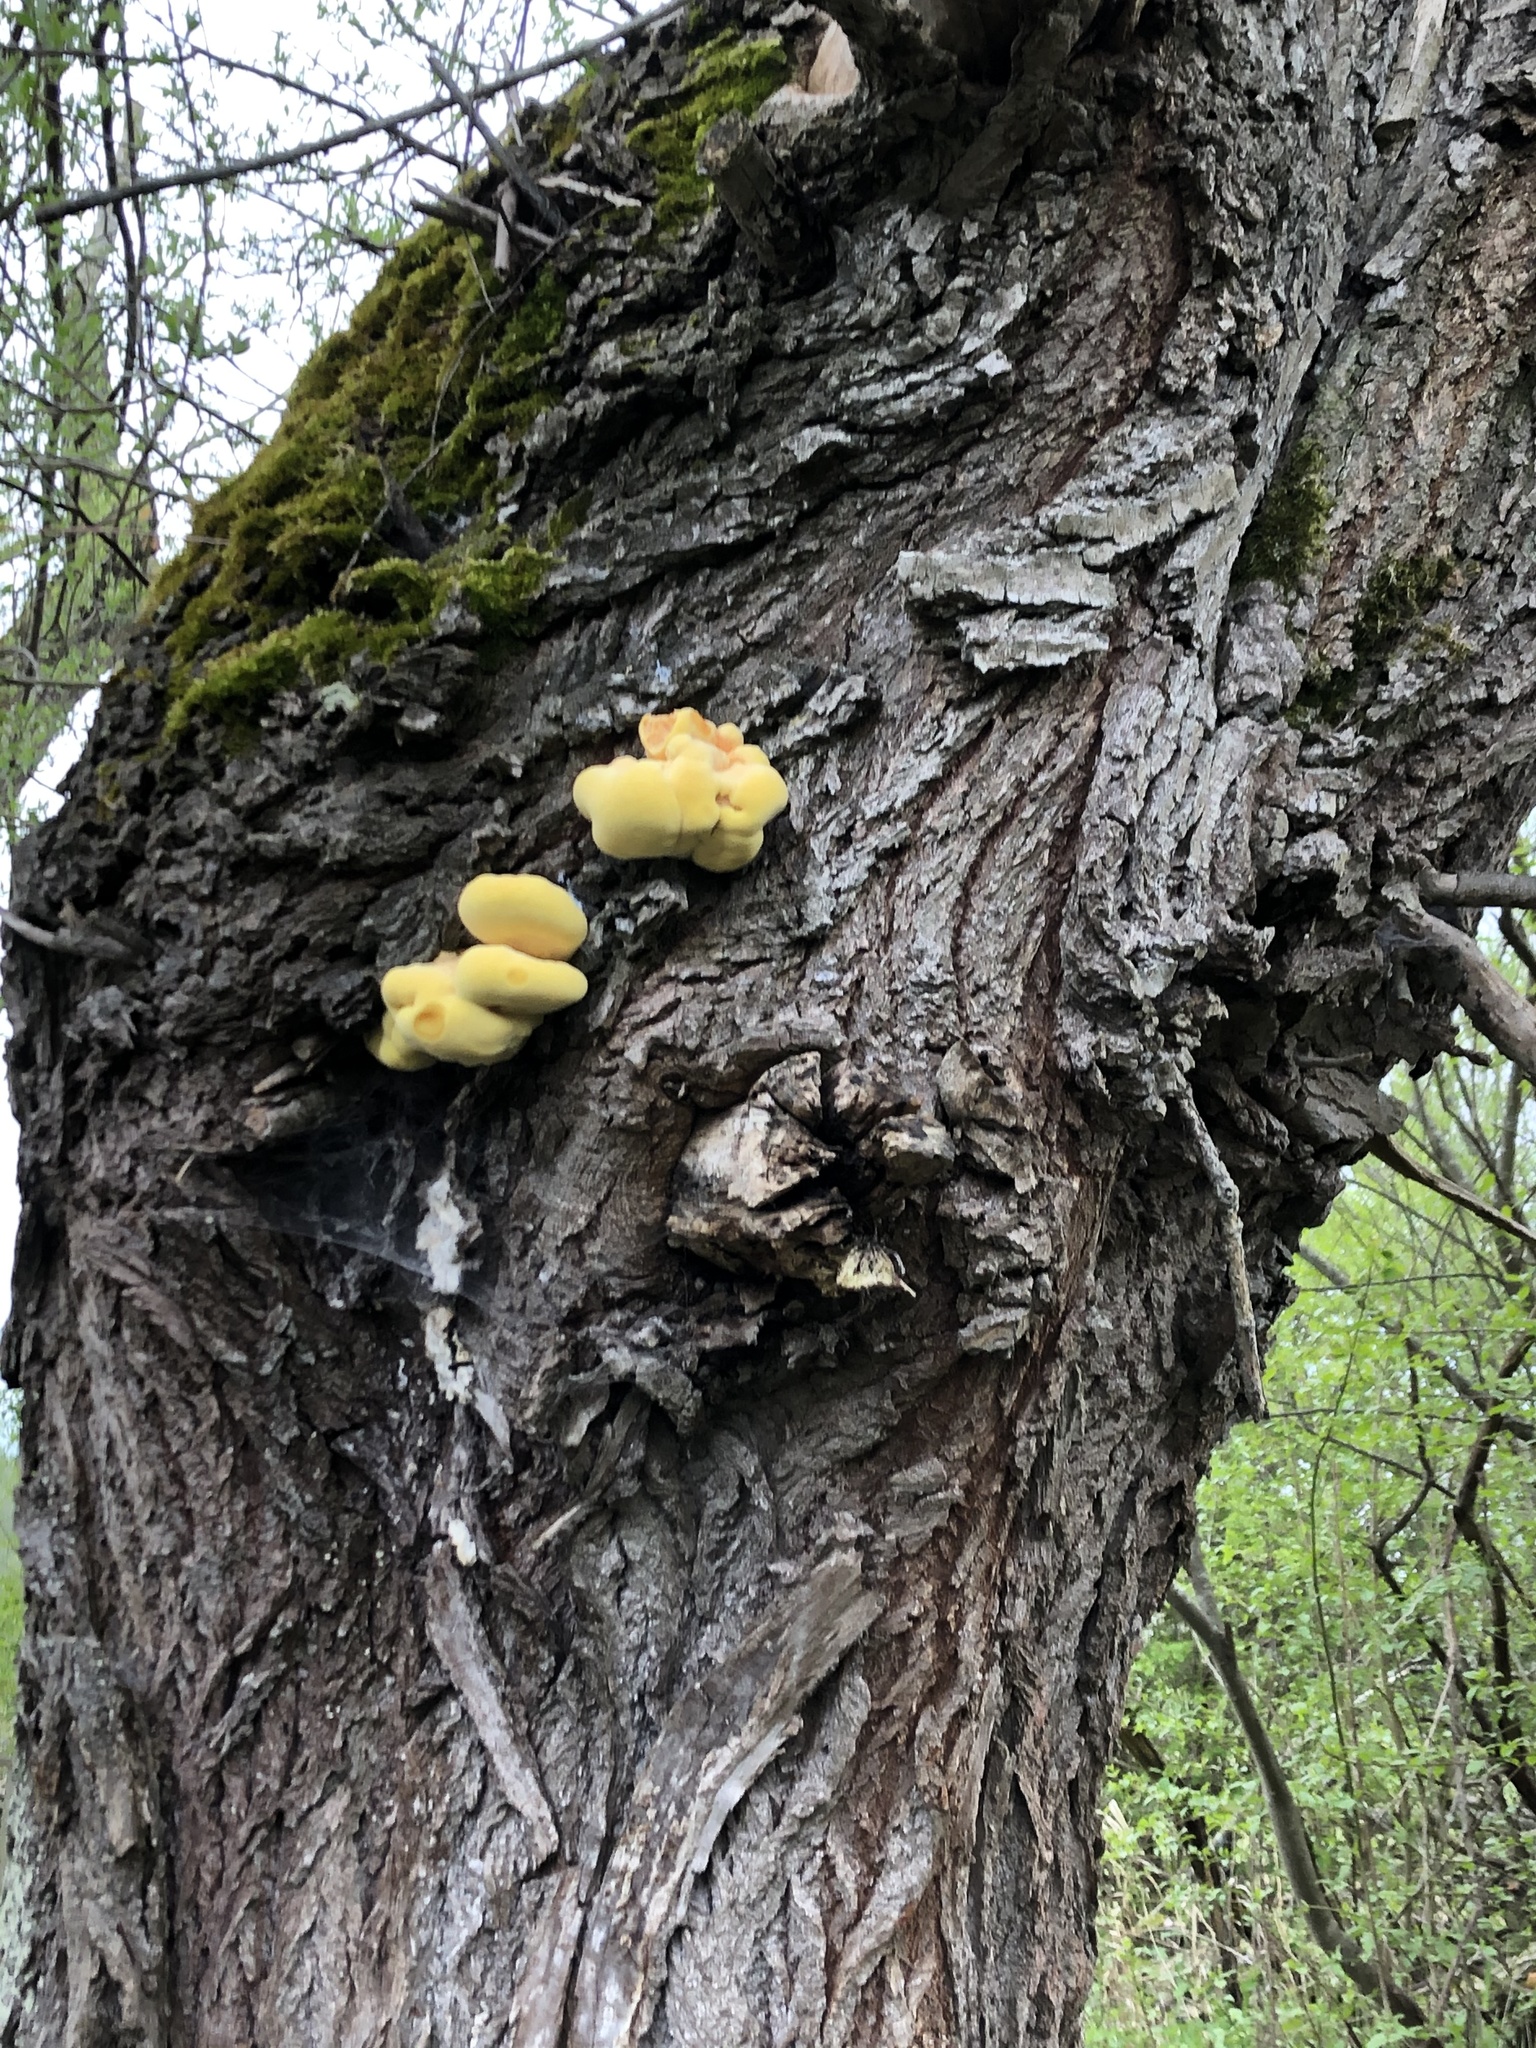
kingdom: Fungi
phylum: Basidiomycota
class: Agaricomycetes
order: Polyporales
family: Laetiporaceae
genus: Laetiporus
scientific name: Laetiporus sulphureus
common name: Chicken of the woods
